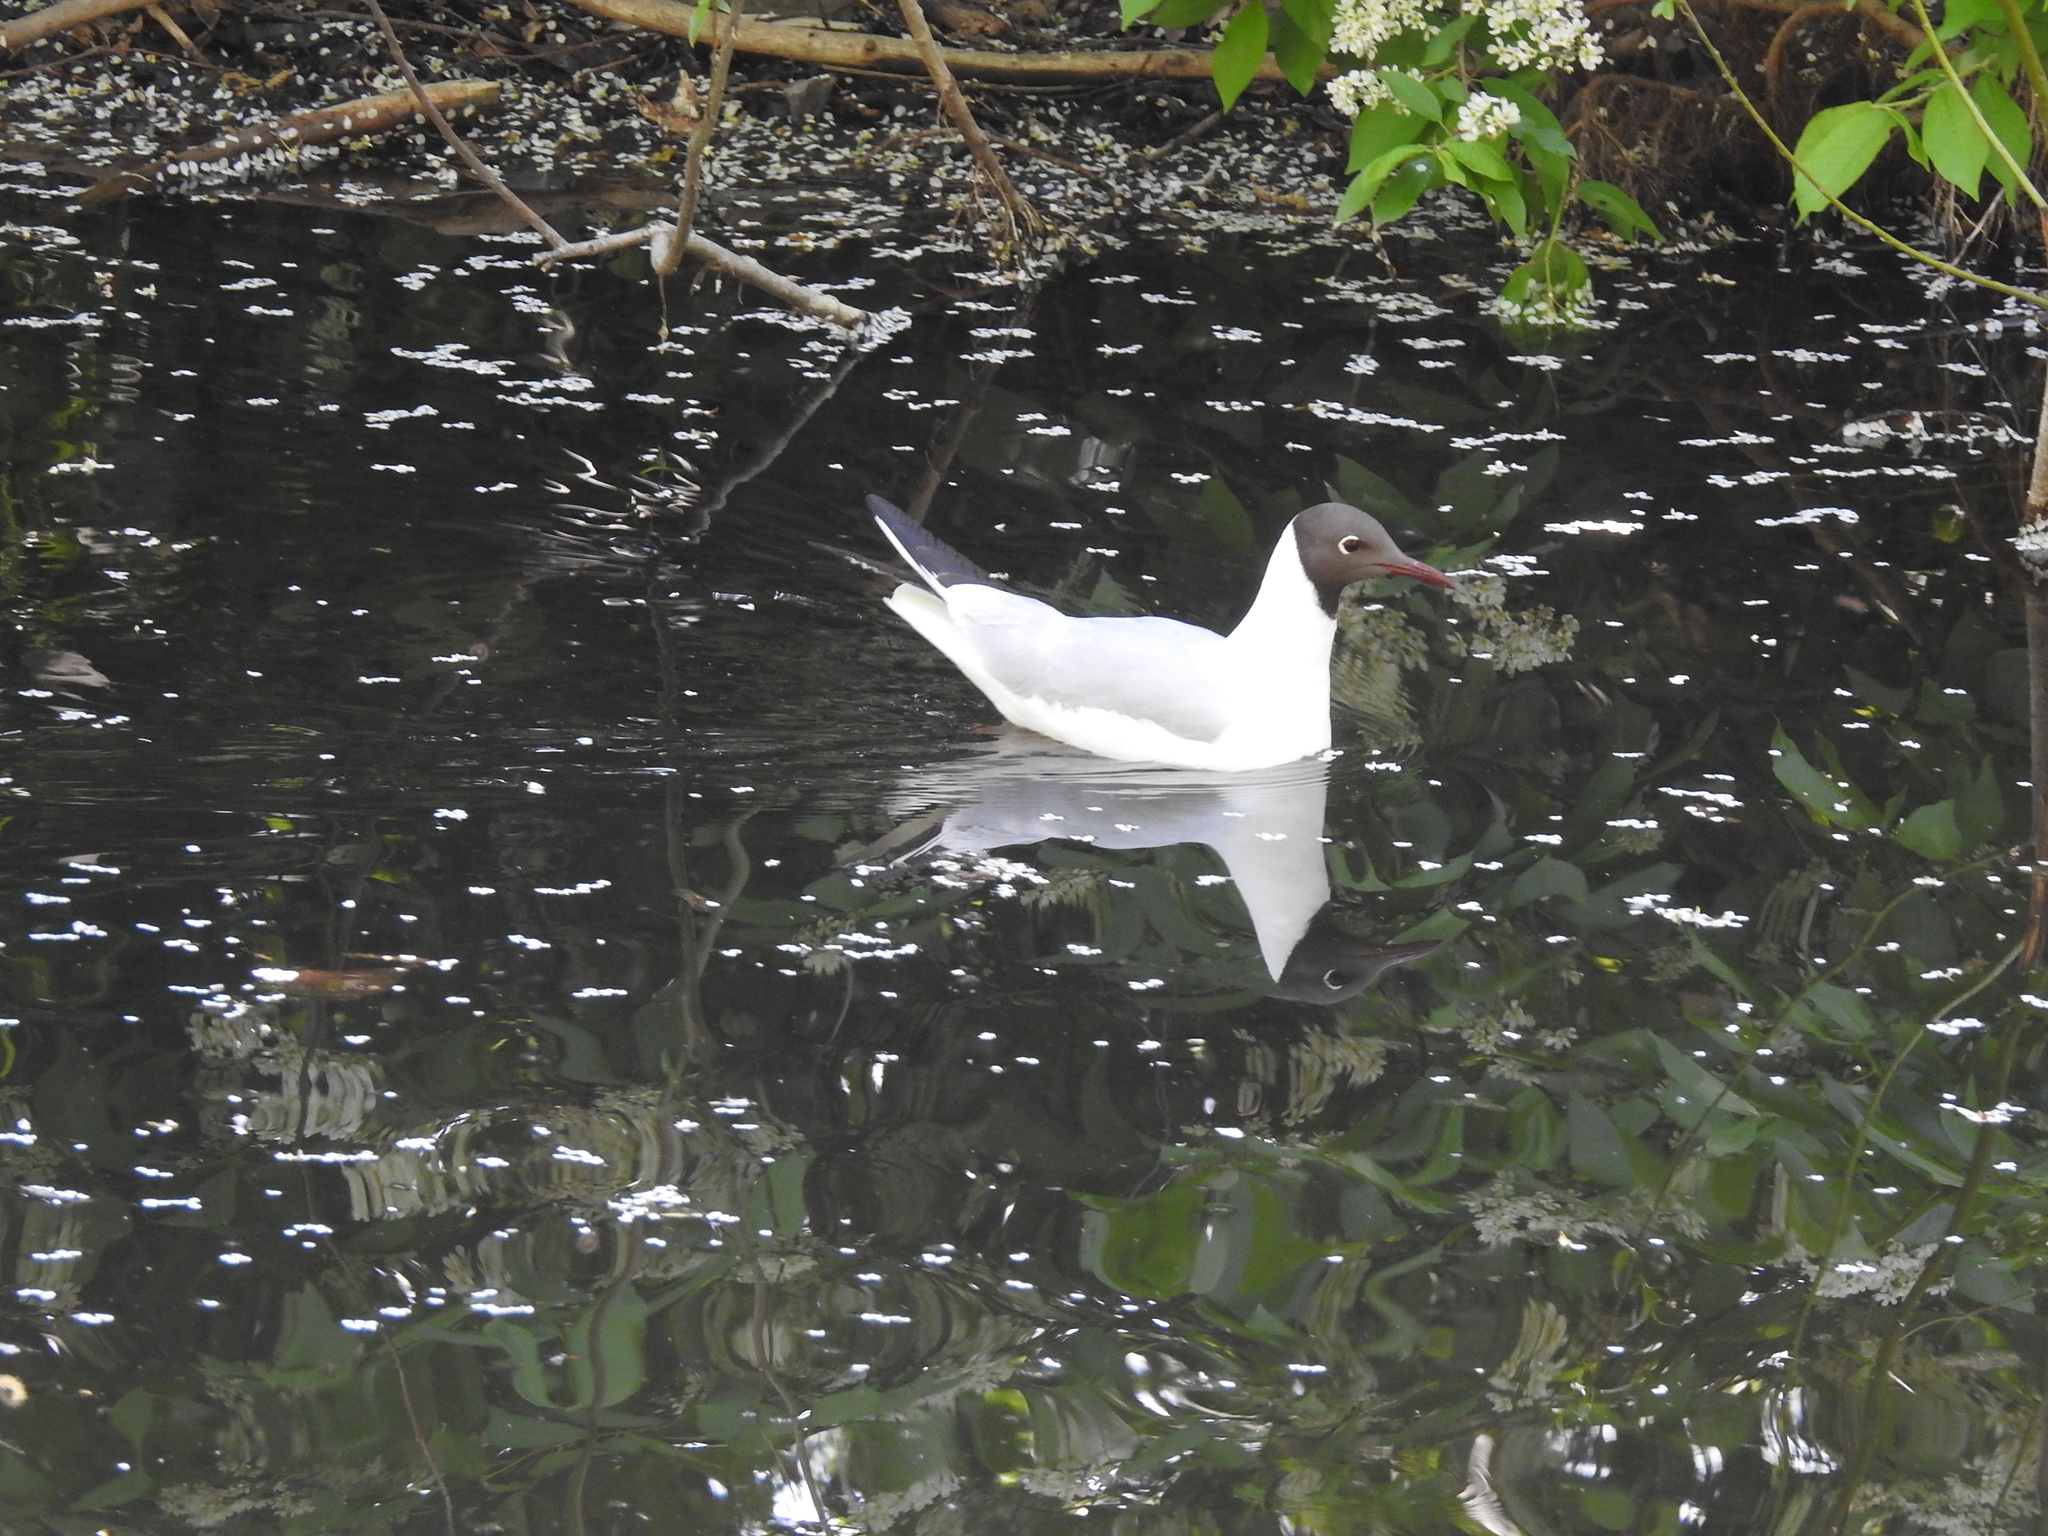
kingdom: Animalia
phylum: Chordata
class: Aves
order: Charadriiformes
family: Laridae
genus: Chroicocephalus
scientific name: Chroicocephalus ridibundus
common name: Black-headed gull
